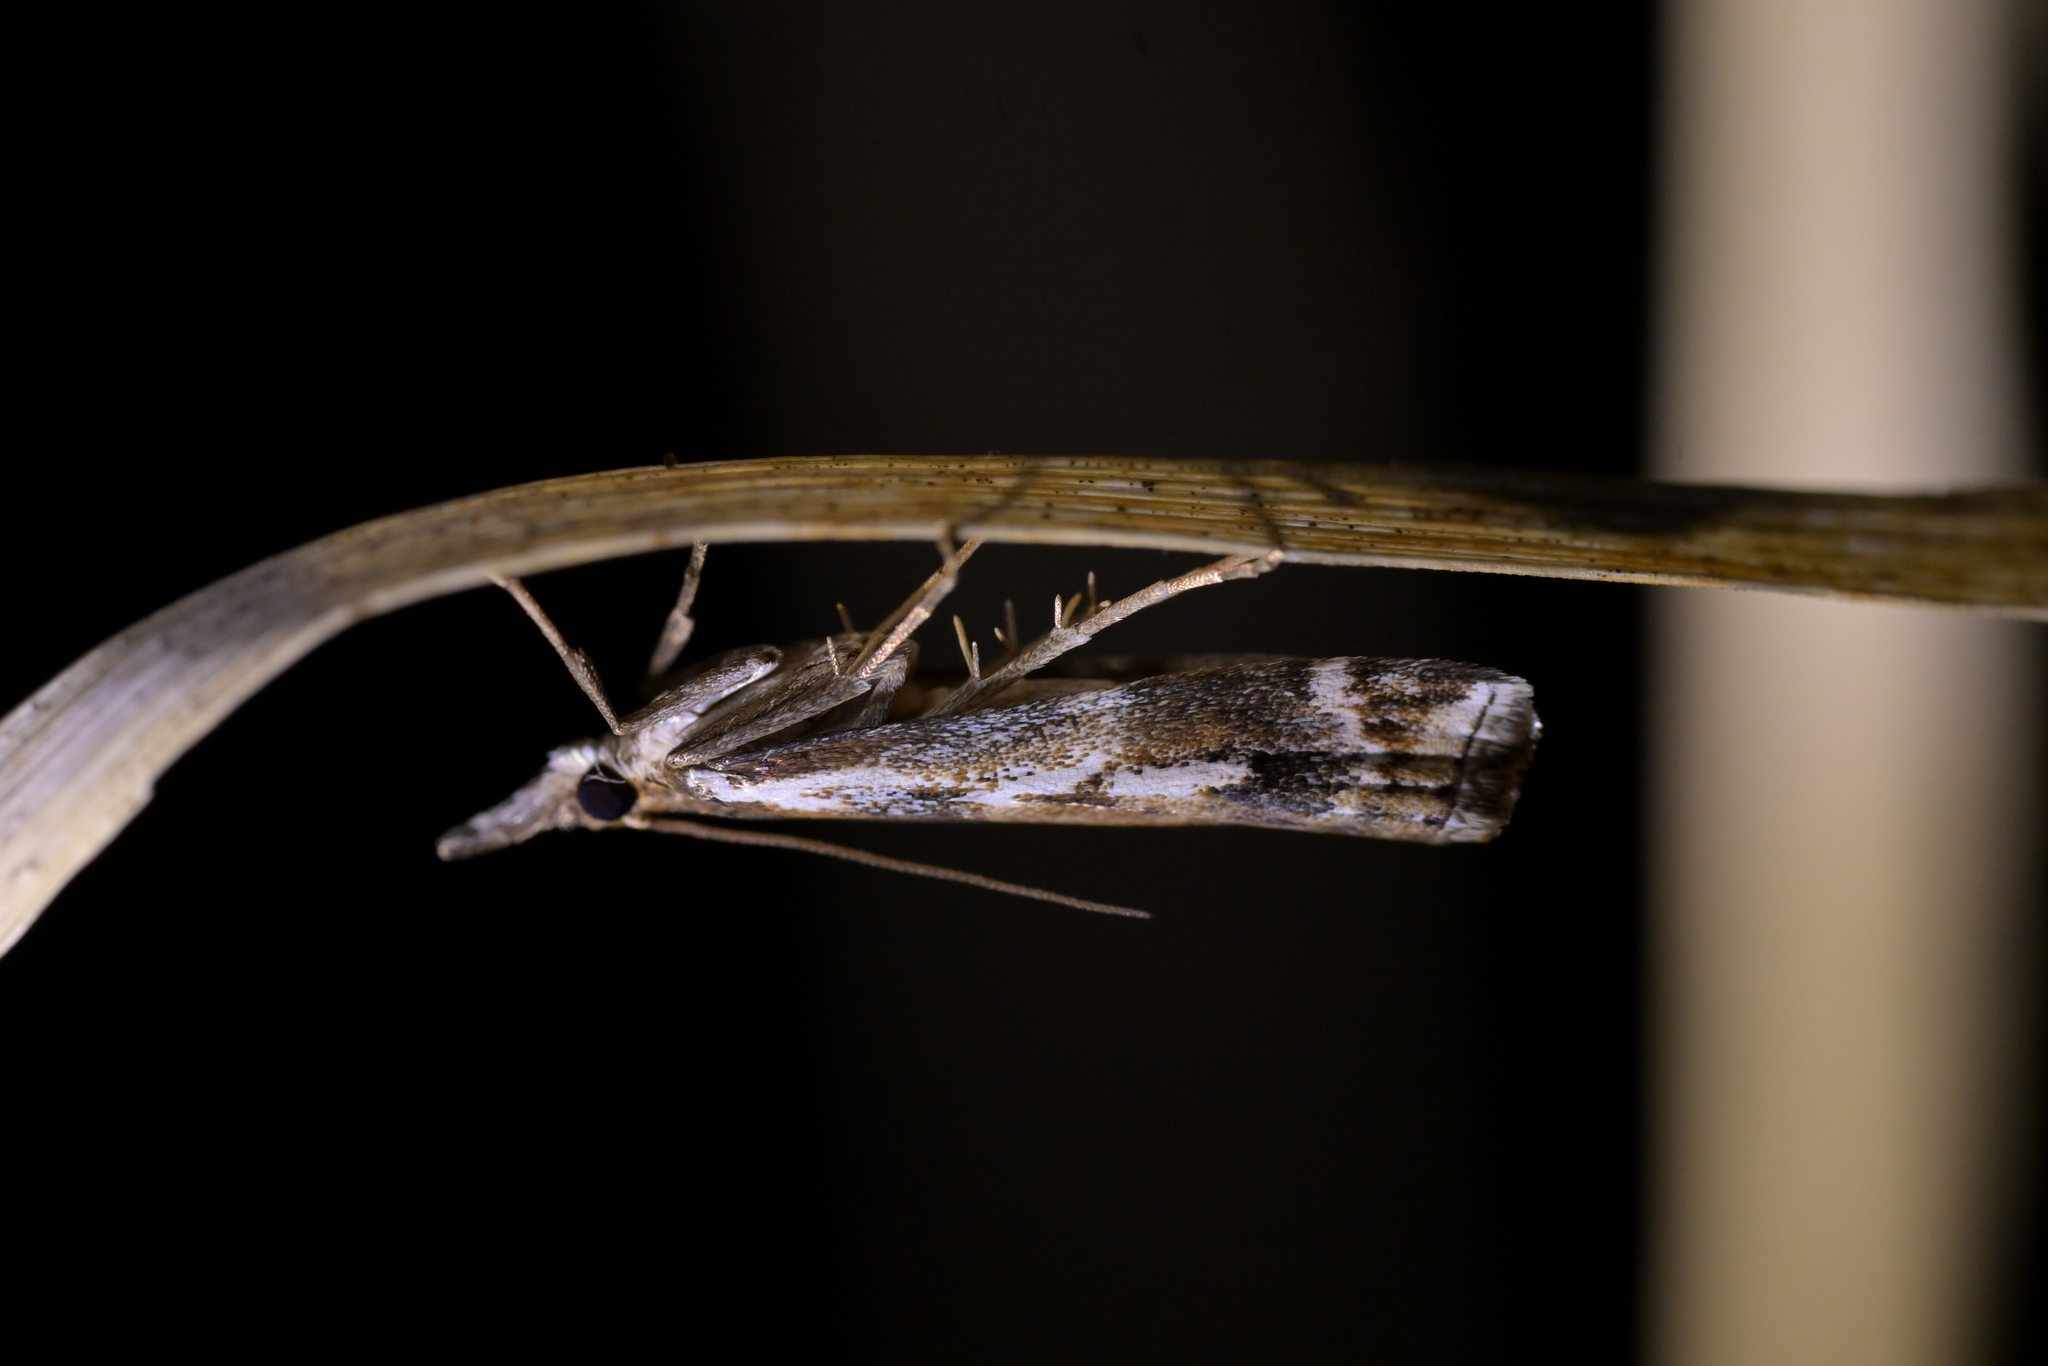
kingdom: Animalia
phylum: Arthropoda
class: Insecta
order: Lepidoptera
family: Crambidae
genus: Orocrambus
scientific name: Orocrambus vulgaris
